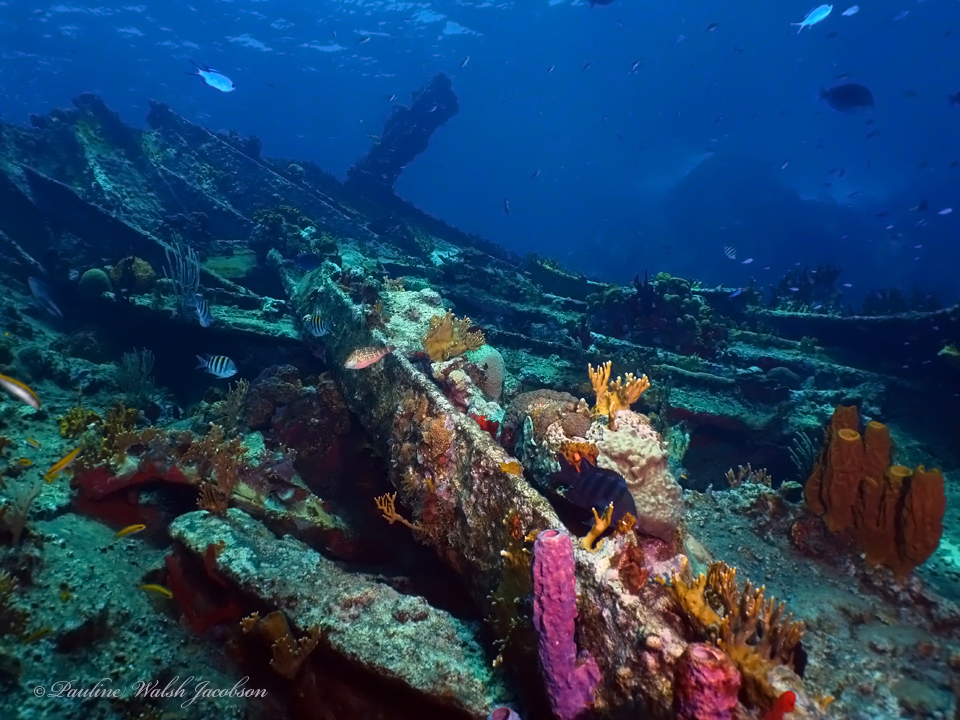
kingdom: Animalia
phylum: Chordata
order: Perciformes
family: Scaridae
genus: Sparisoma
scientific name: Sparisoma viride
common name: Stoplight parrotfish
